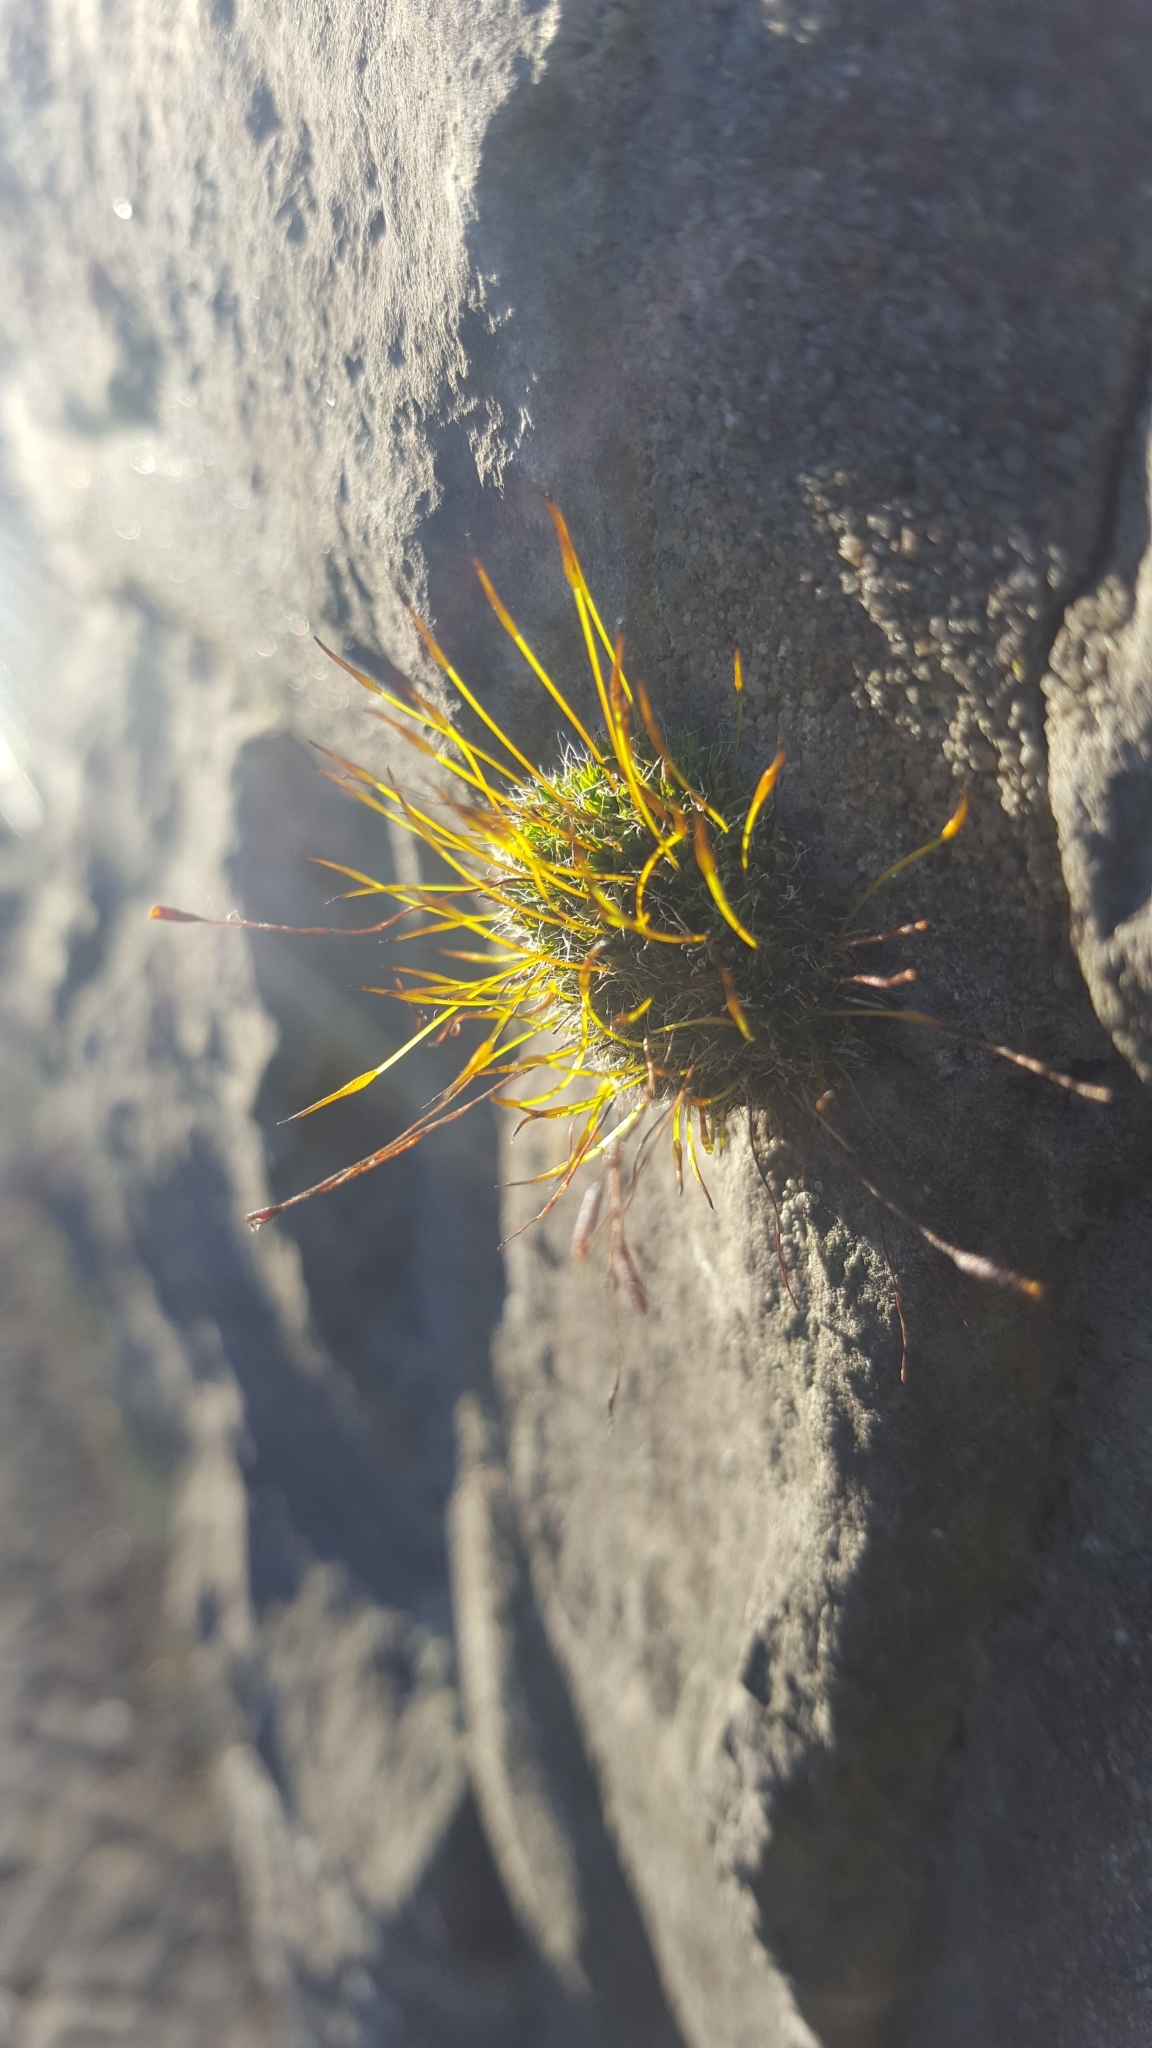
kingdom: Plantae
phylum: Bryophyta
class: Bryopsida
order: Pottiales
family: Pottiaceae
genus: Tortula
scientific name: Tortula muralis
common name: Wall screw-moss
